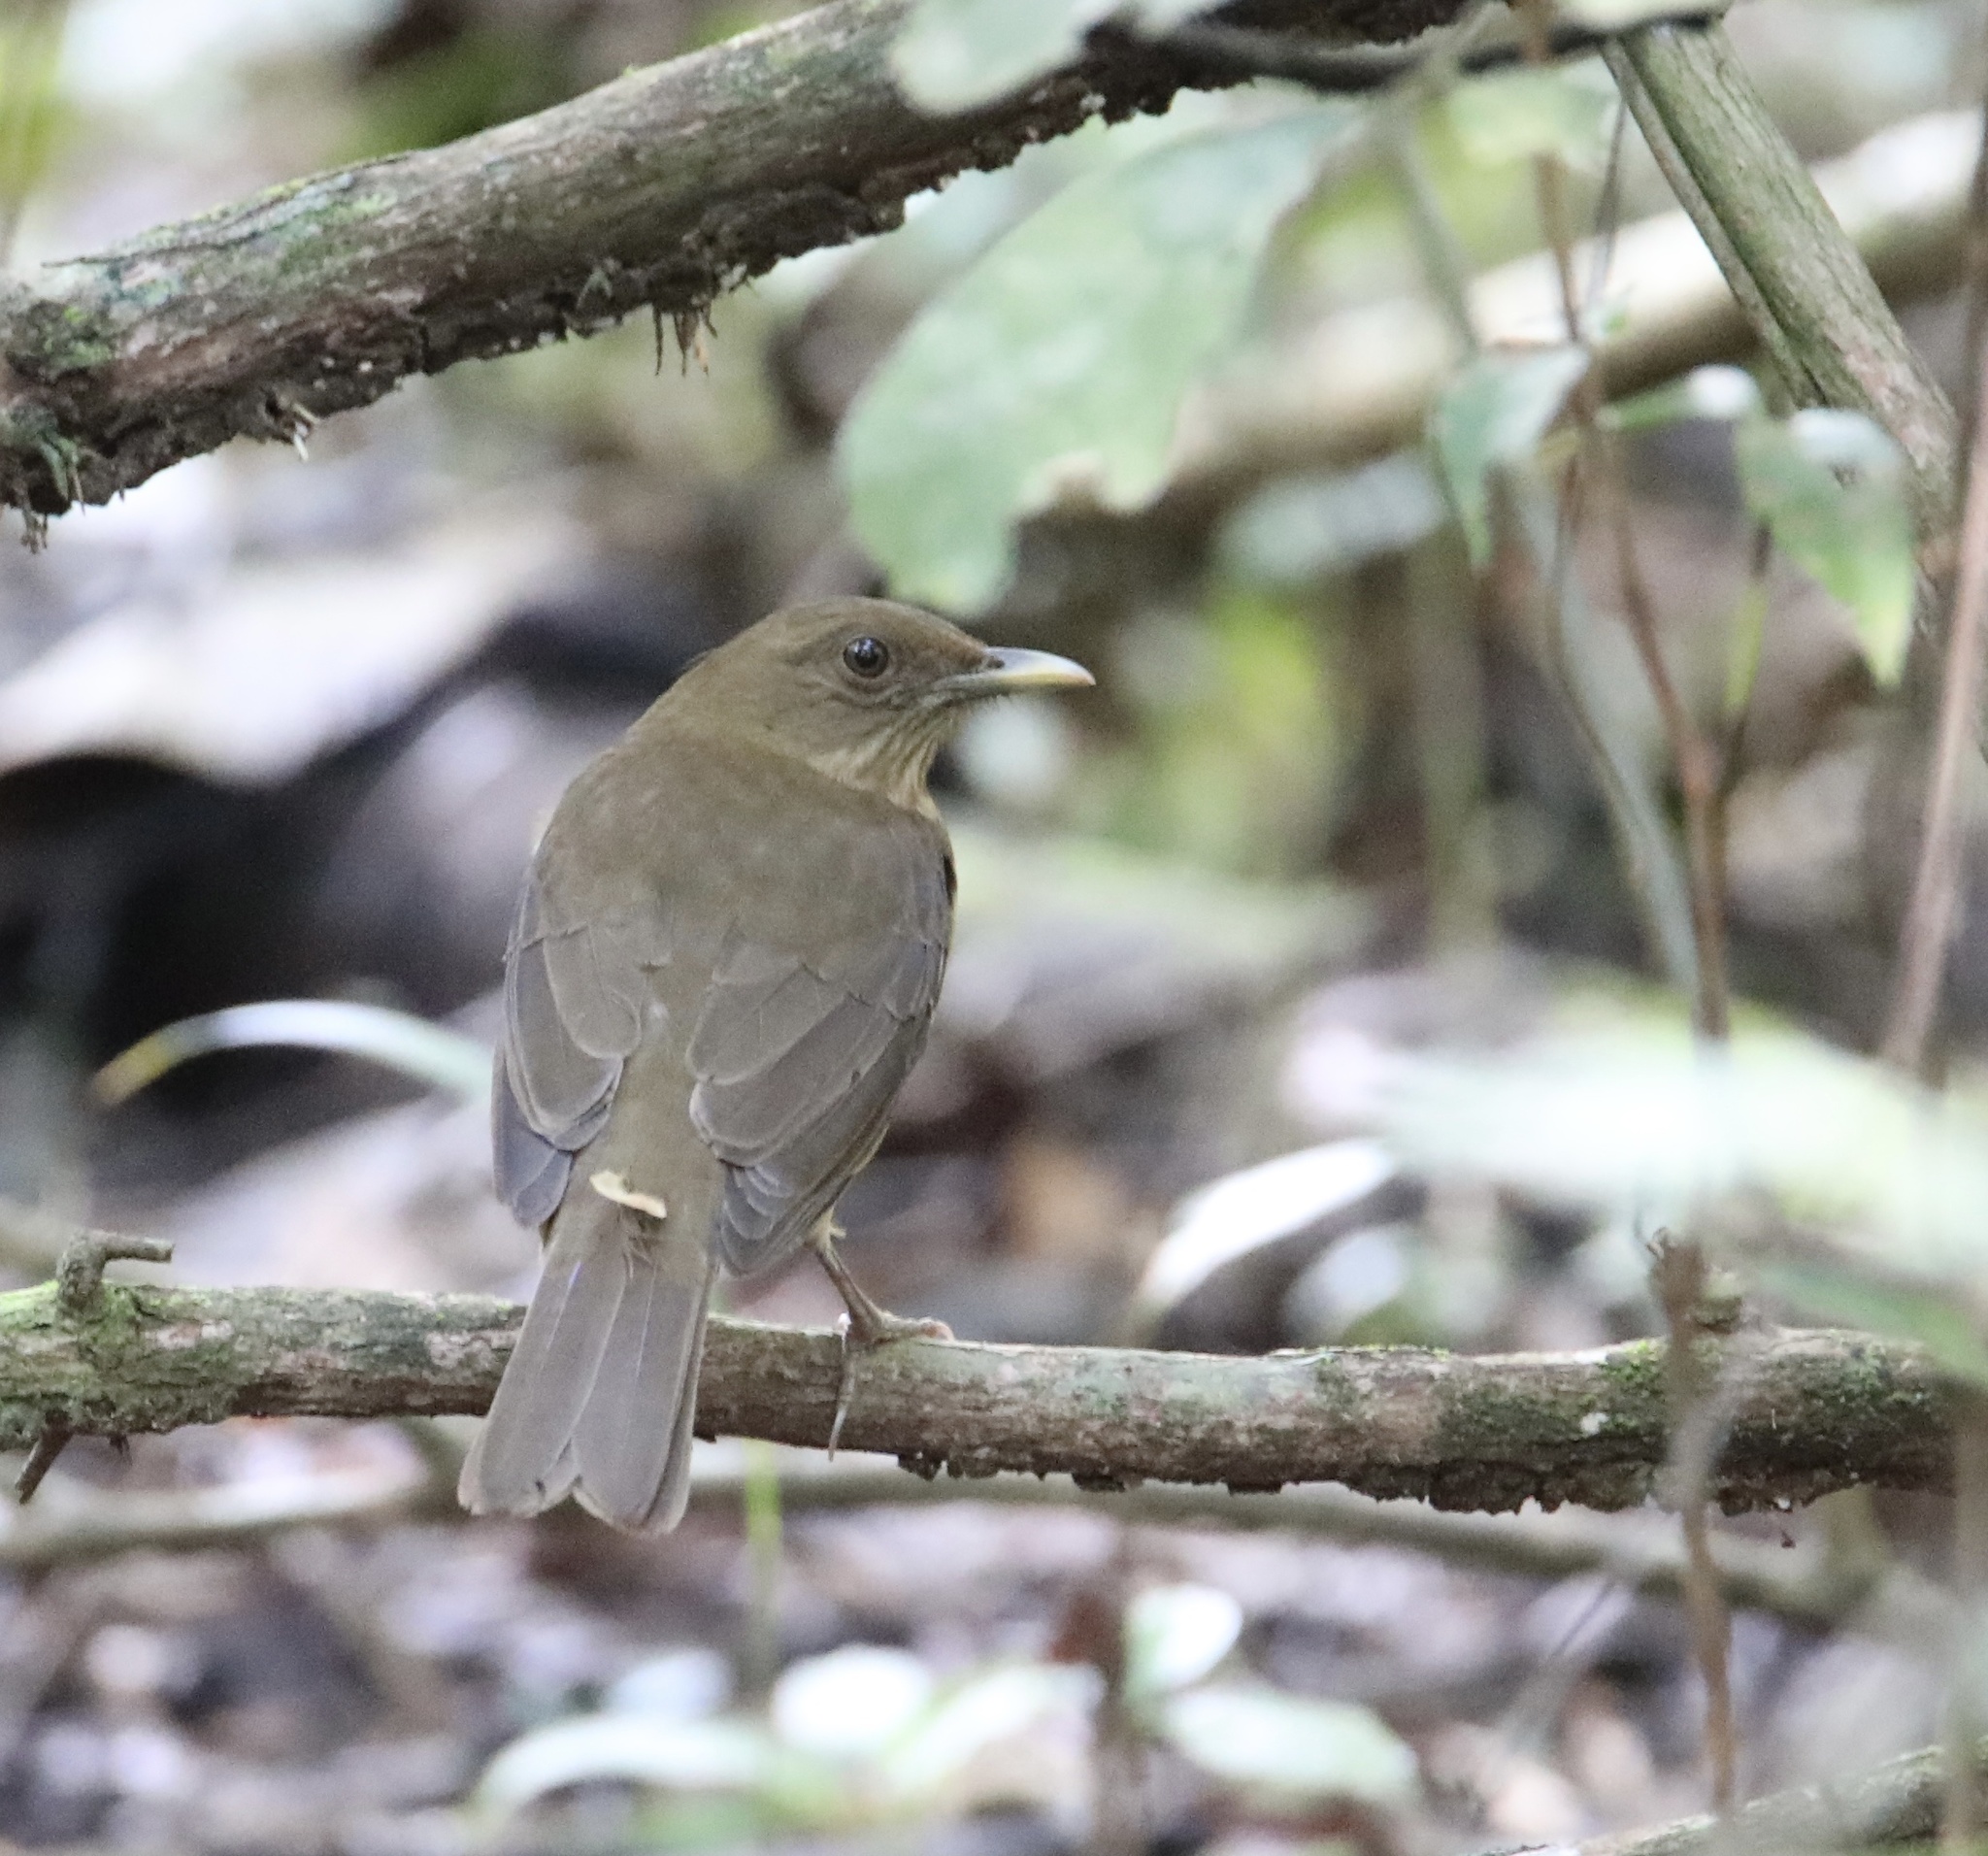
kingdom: Animalia
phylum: Chordata
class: Aves
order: Passeriformes
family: Turdidae
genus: Turdus
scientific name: Turdus grayi
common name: Clay-colored thrush
